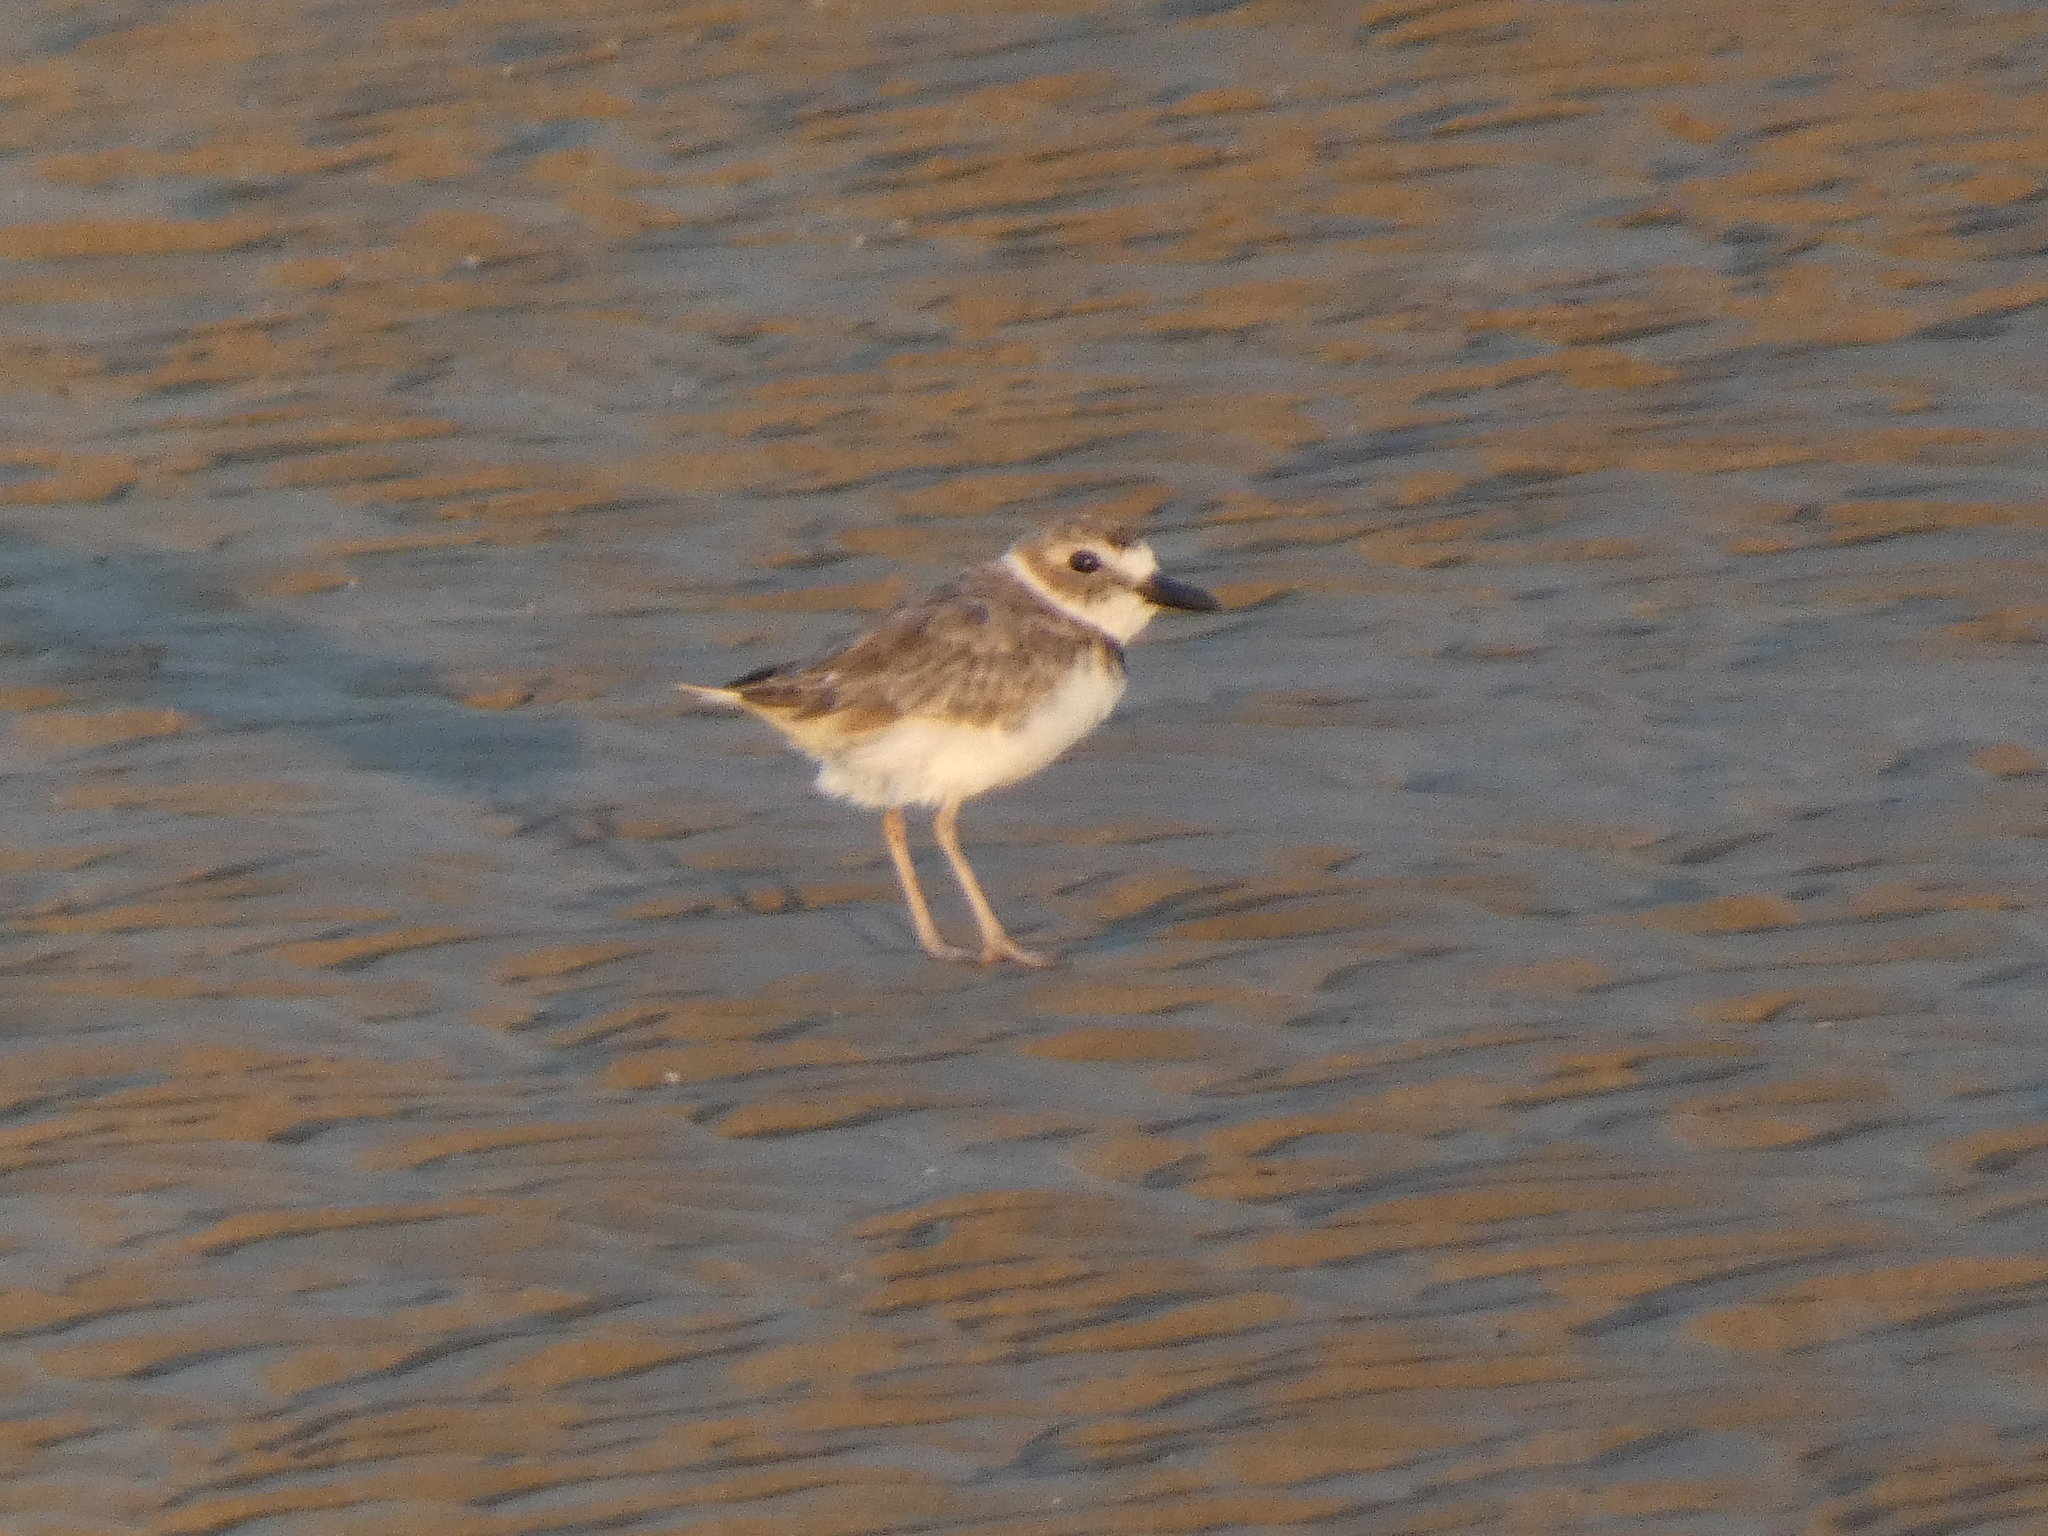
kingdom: Animalia
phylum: Chordata
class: Aves
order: Charadriiformes
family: Charadriidae
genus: Anarhynchus
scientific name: Anarhynchus
